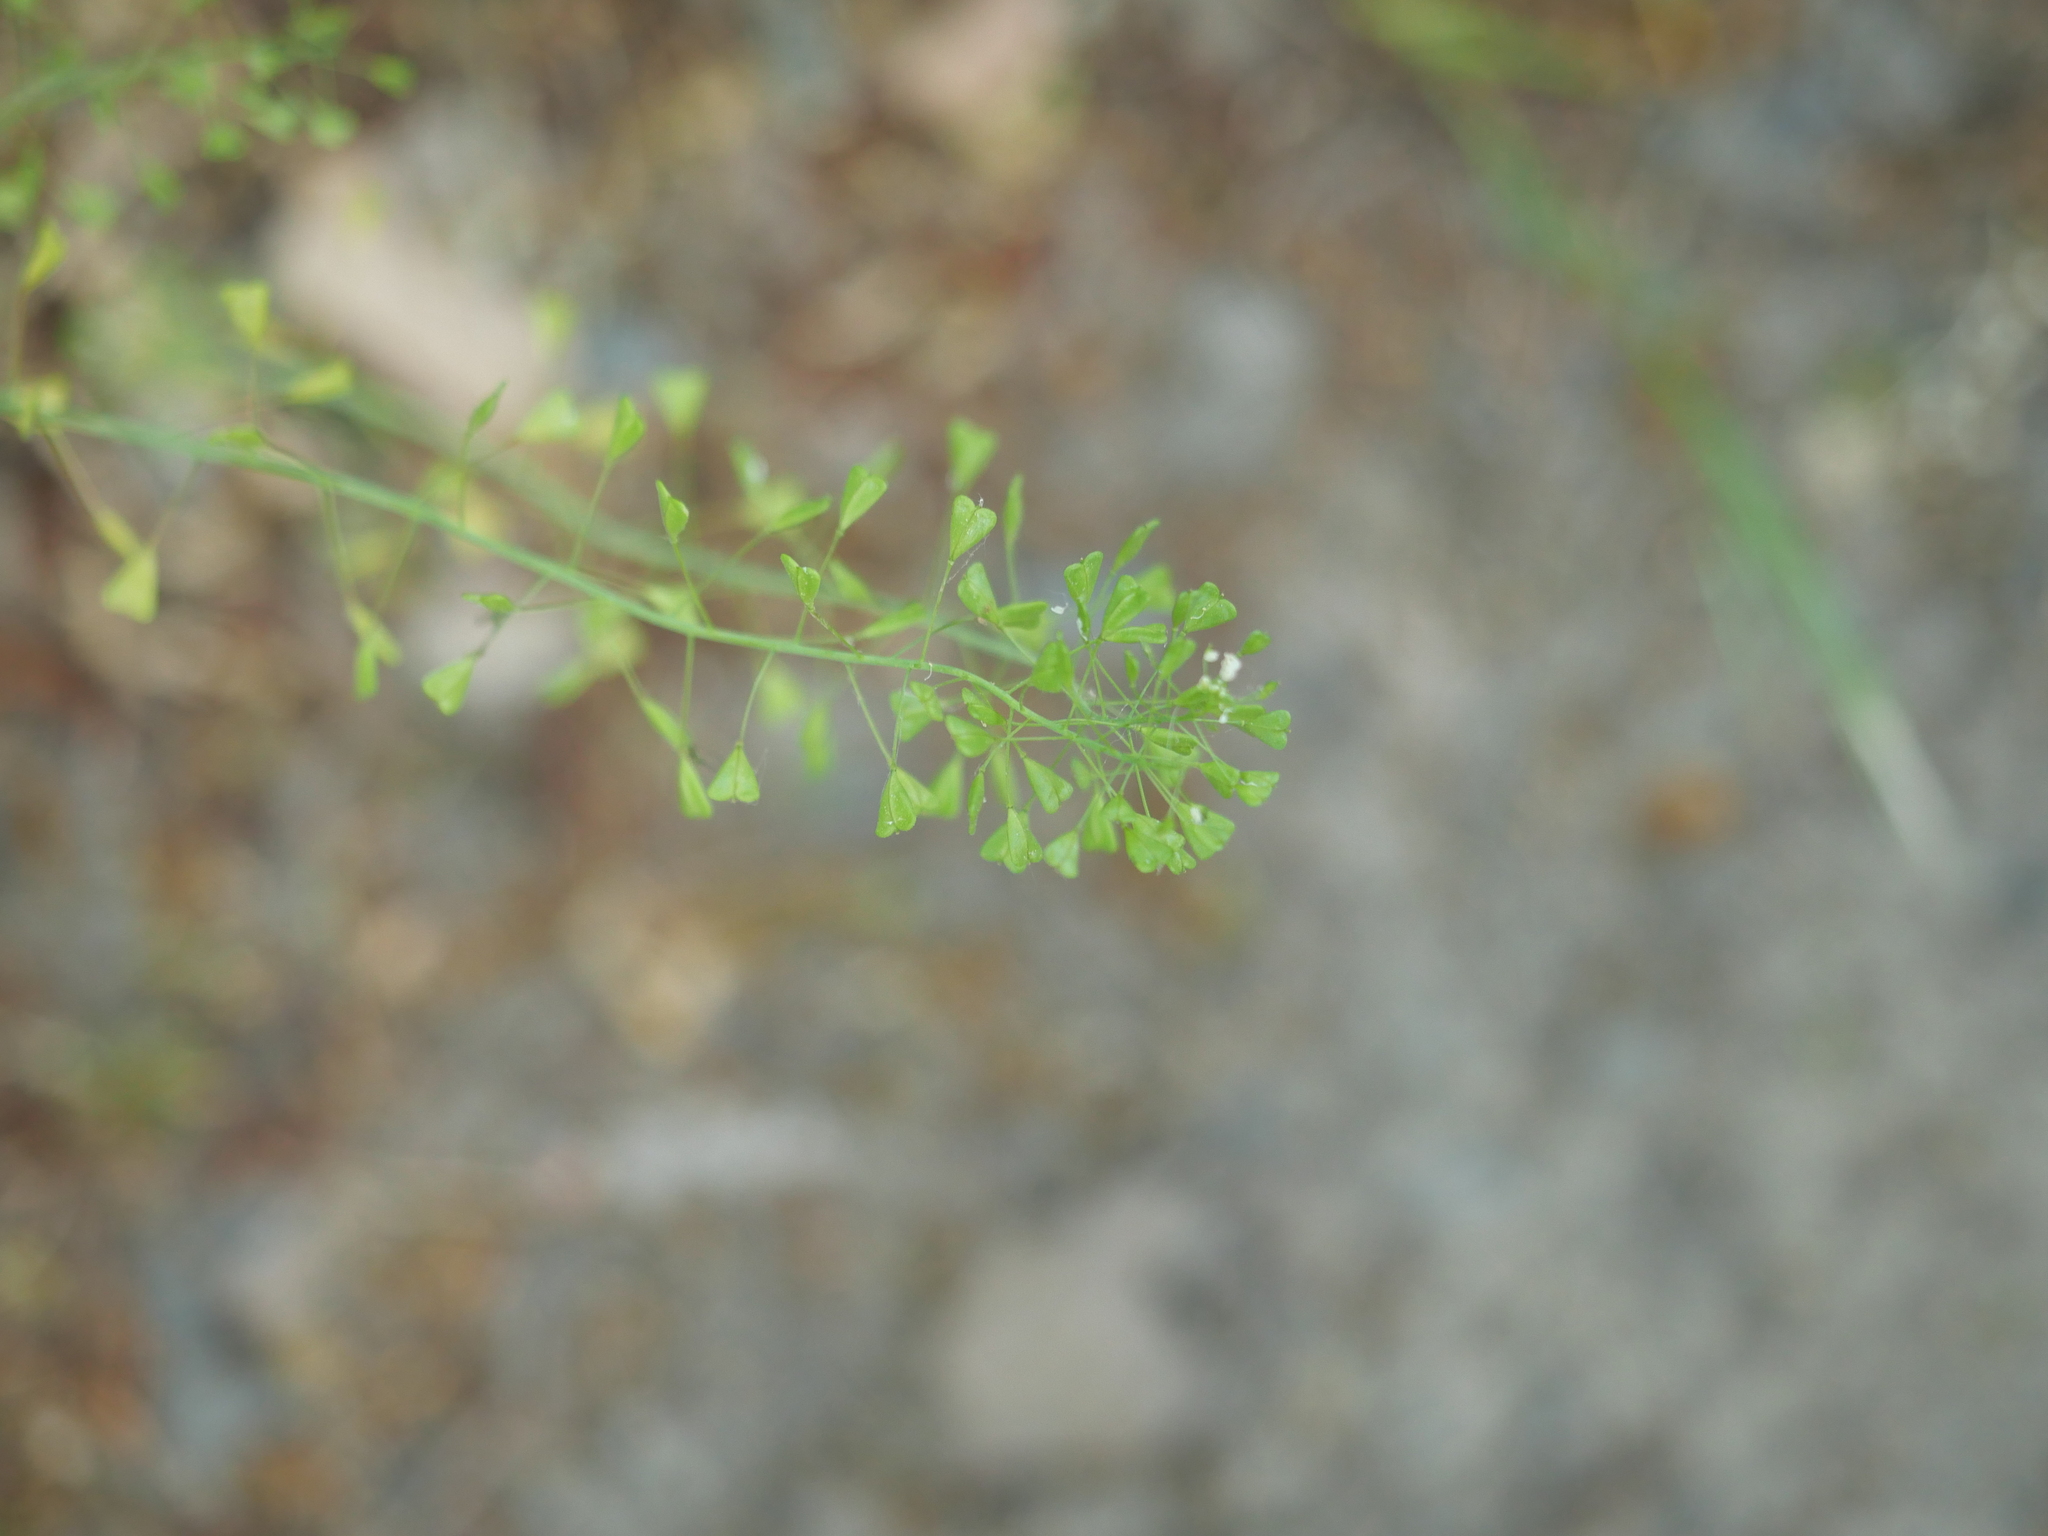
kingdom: Plantae
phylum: Tracheophyta
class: Magnoliopsida
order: Brassicales
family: Brassicaceae
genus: Capsella
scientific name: Capsella bursa-pastoris
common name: Shepherd's purse
